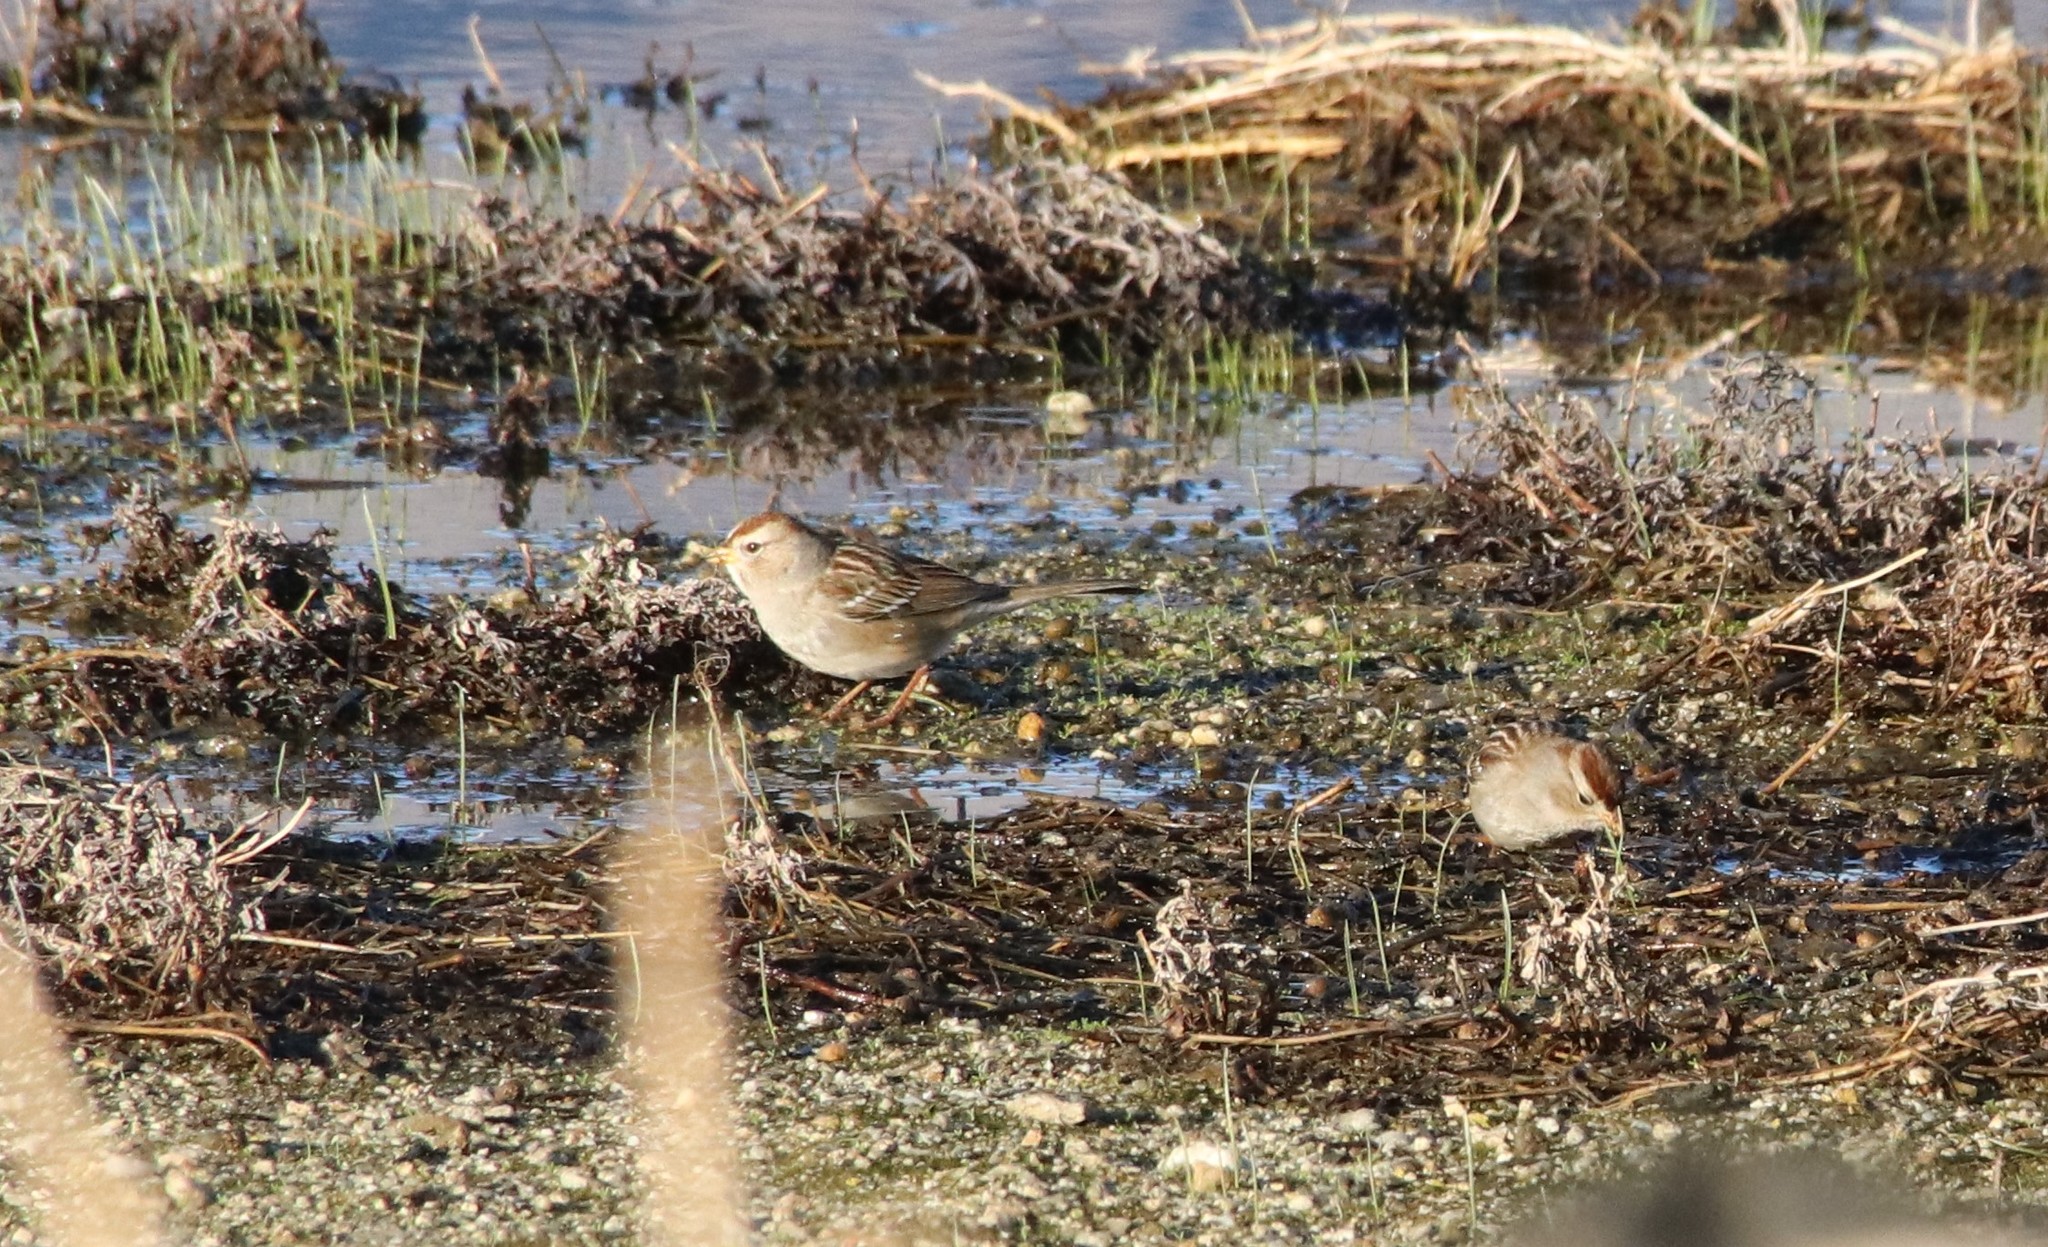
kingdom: Animalia
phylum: Chordata
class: Aves
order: Passeriformes
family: Passerellidae
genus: Zonotrichia
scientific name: Zonotrichia leucophrys
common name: White-crowned sparrow
